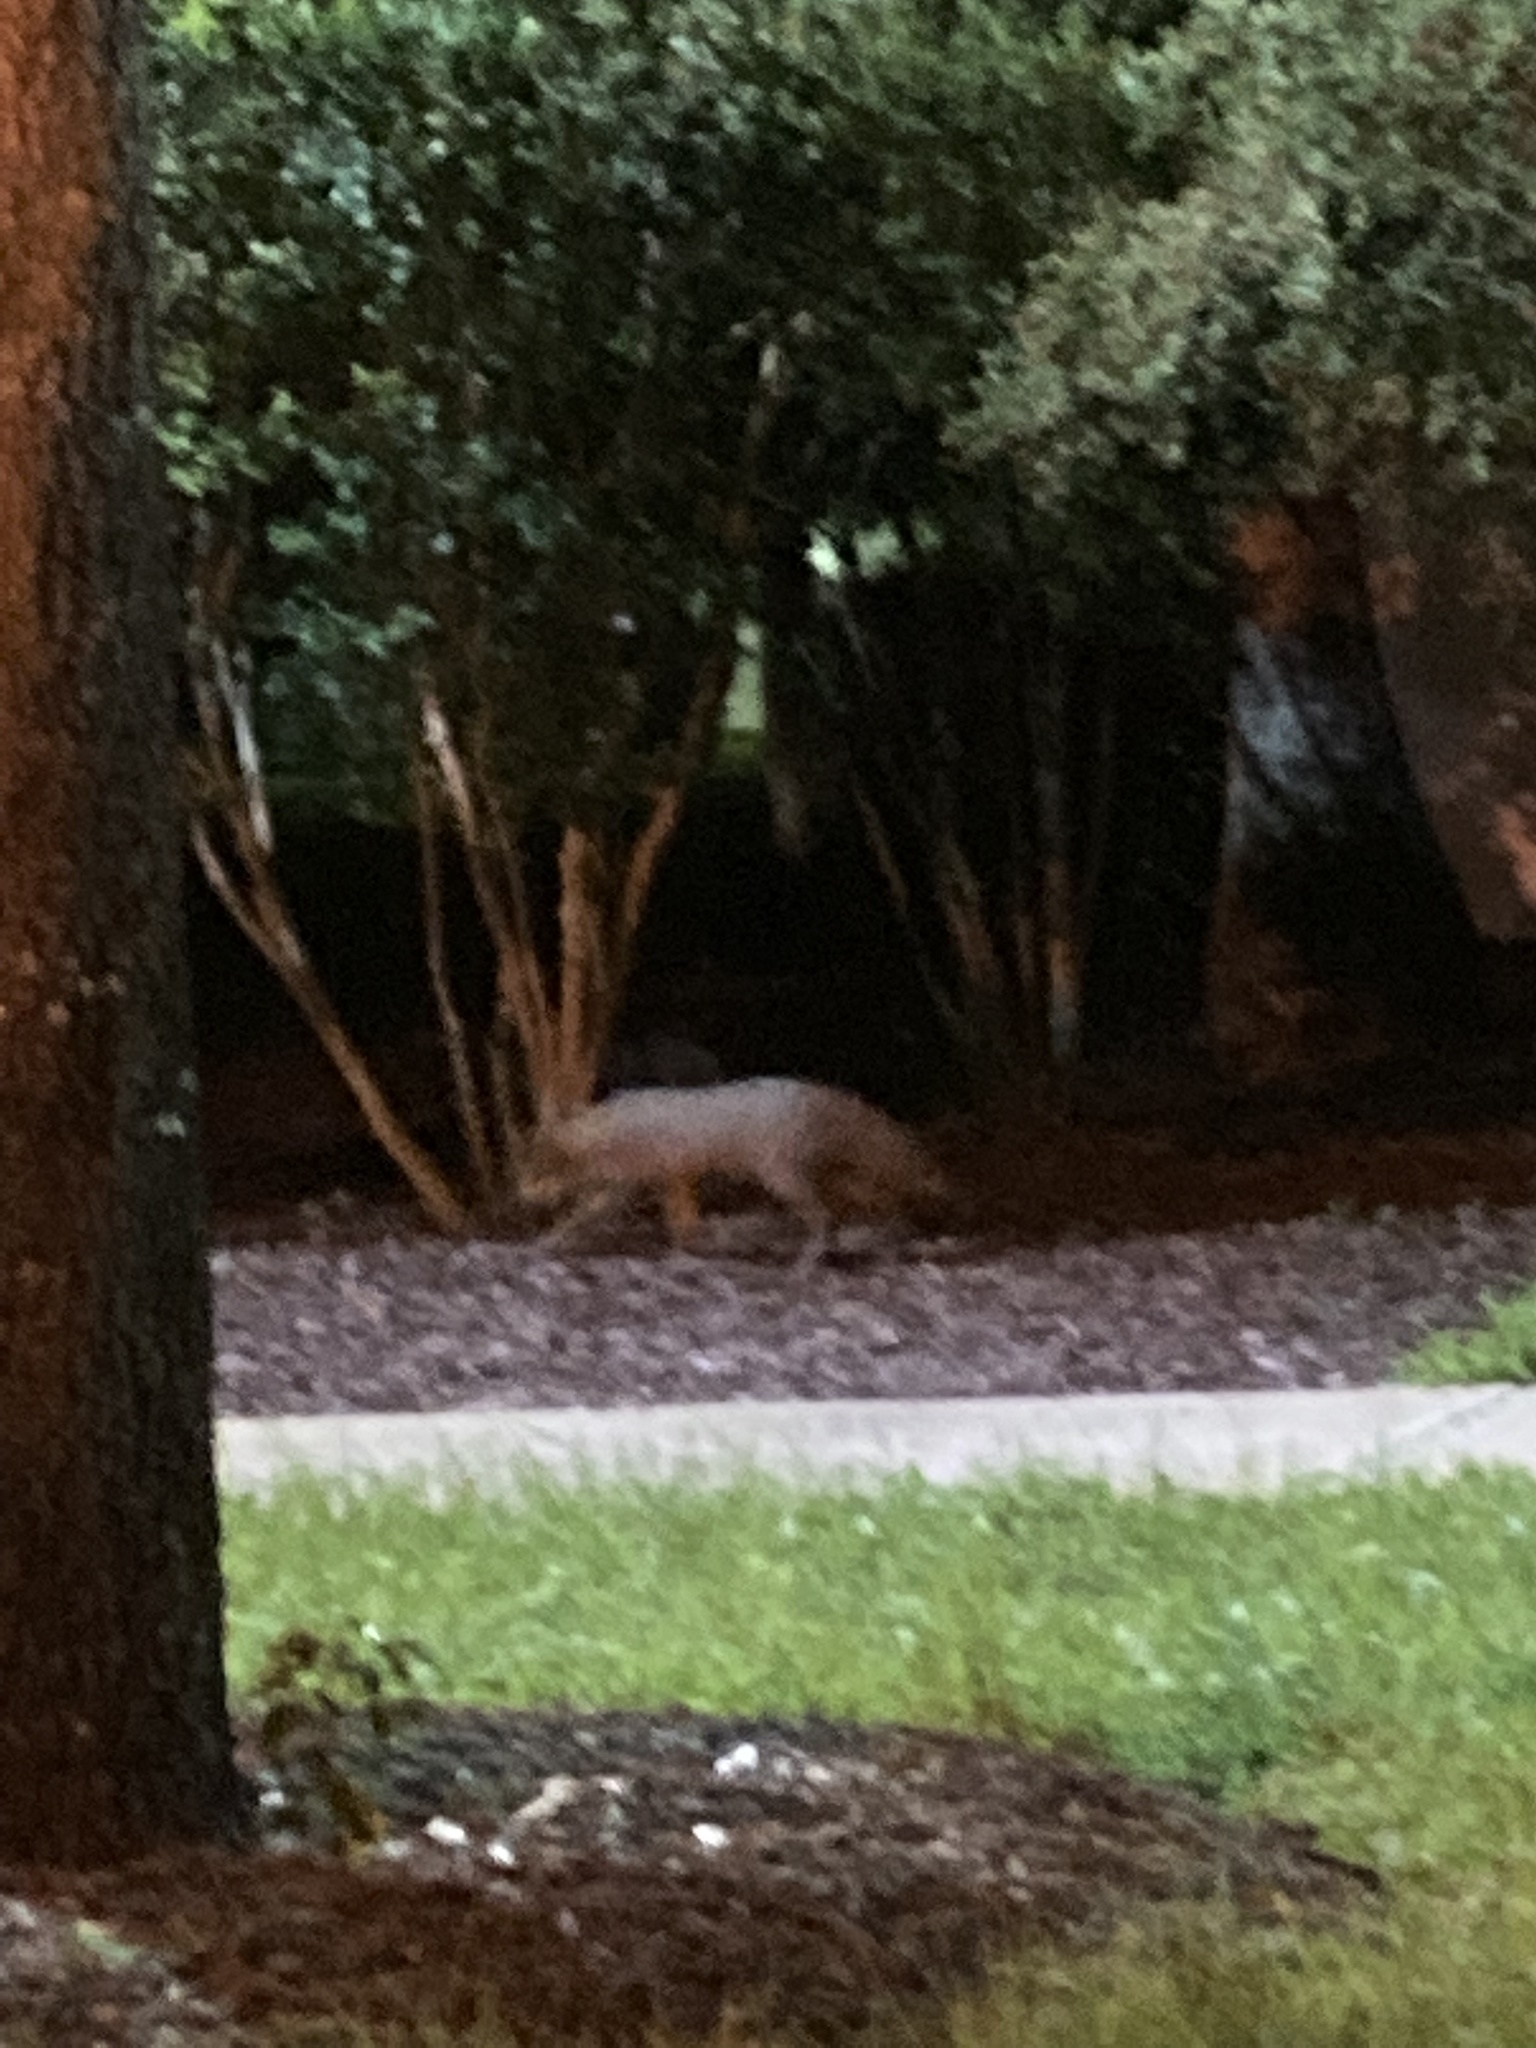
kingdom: Animalia
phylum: Chordata
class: Mammalia
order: Carnivora
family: Canidae
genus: Urocyon
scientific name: Urocyon cinereoargenteus
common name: Gray fox
